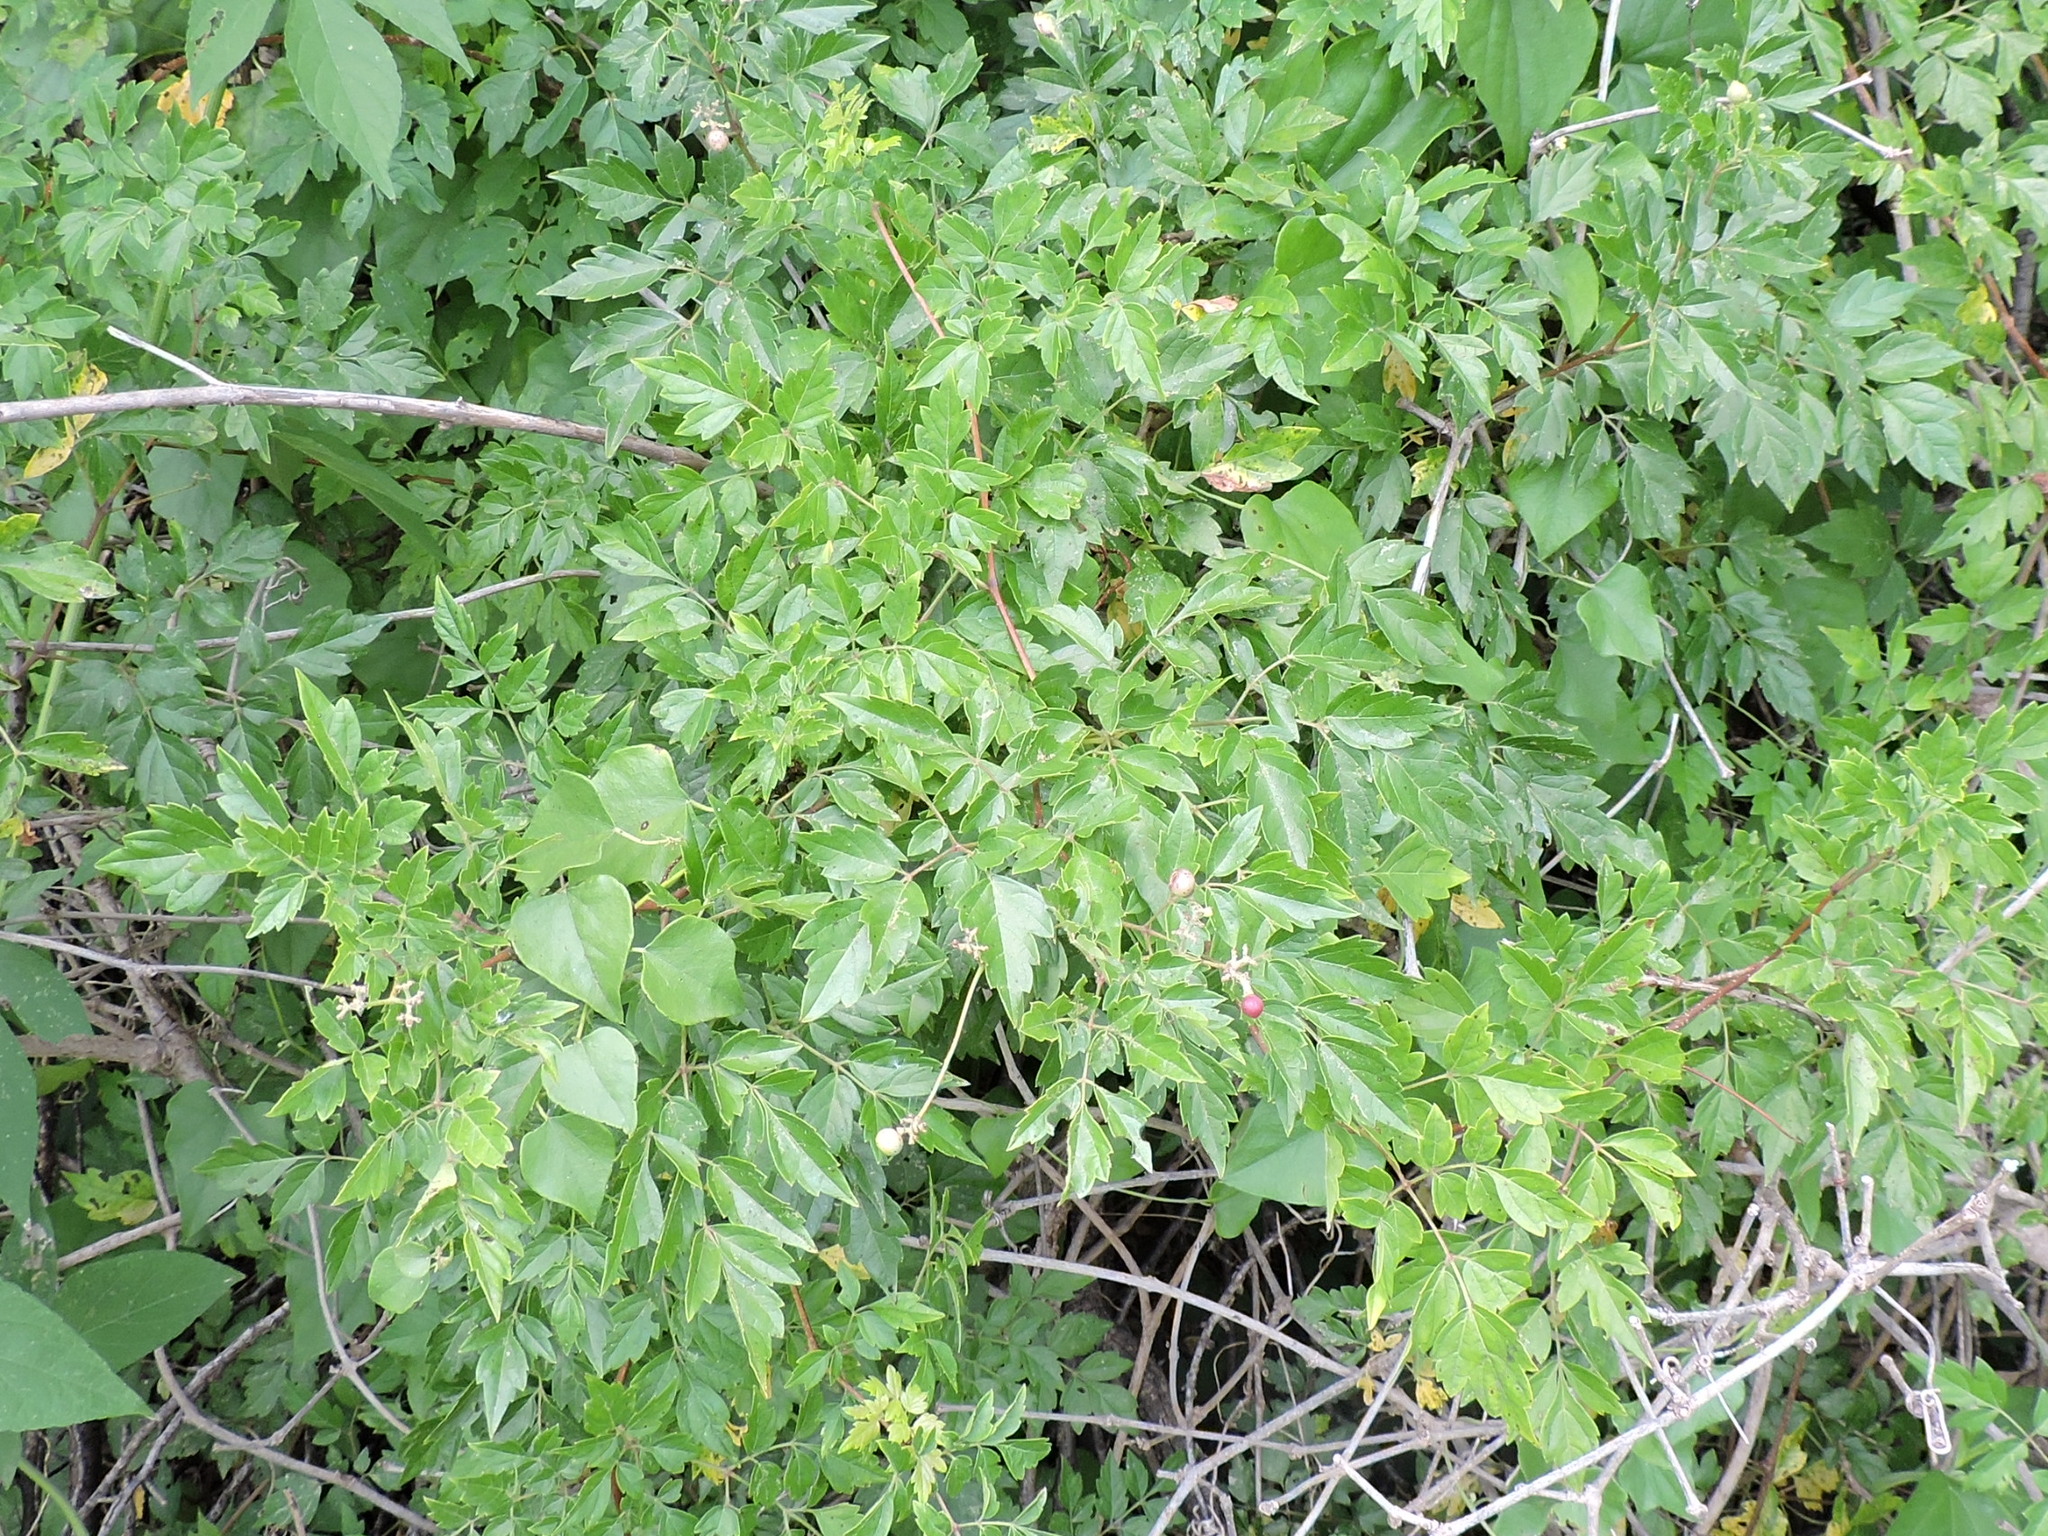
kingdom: Plantae
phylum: Tracheophyta
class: Magnoliopsida
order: Vitales
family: Vitaceae
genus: Nekemias
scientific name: Nekemias arborea
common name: Peppervine
